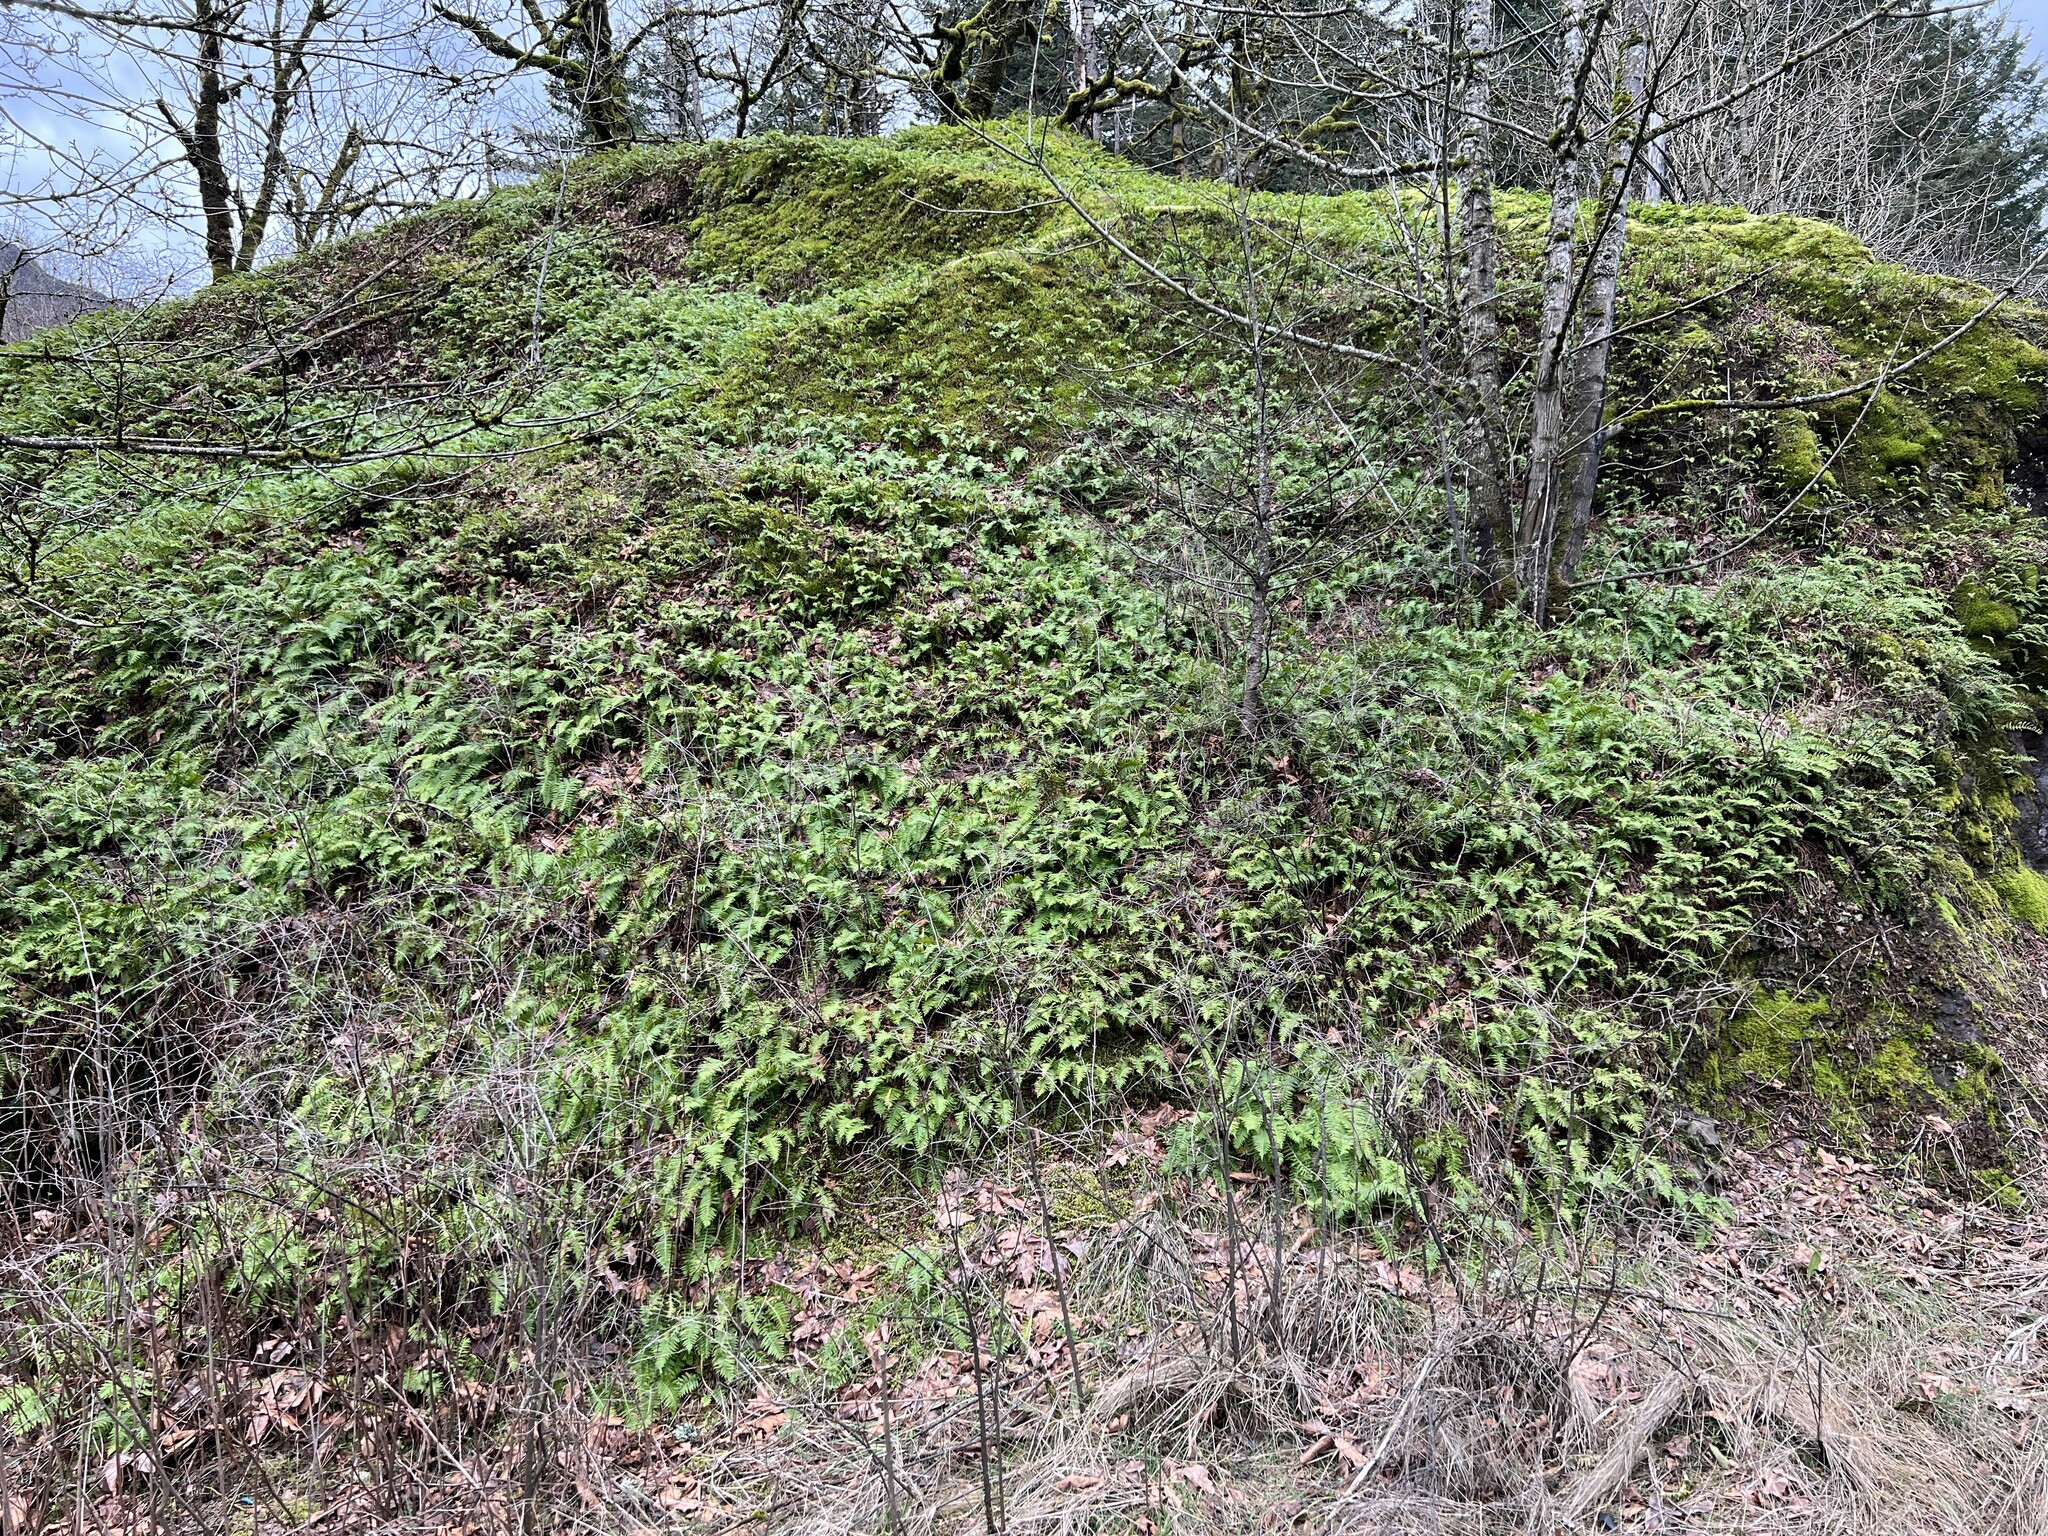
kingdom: Plantae
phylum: Tracheophyta
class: Polypodiopsida
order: Polypodiales
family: Polypodiaceae
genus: Polypodium
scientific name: Polypodium glycyrrhiza
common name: Licorice fern
